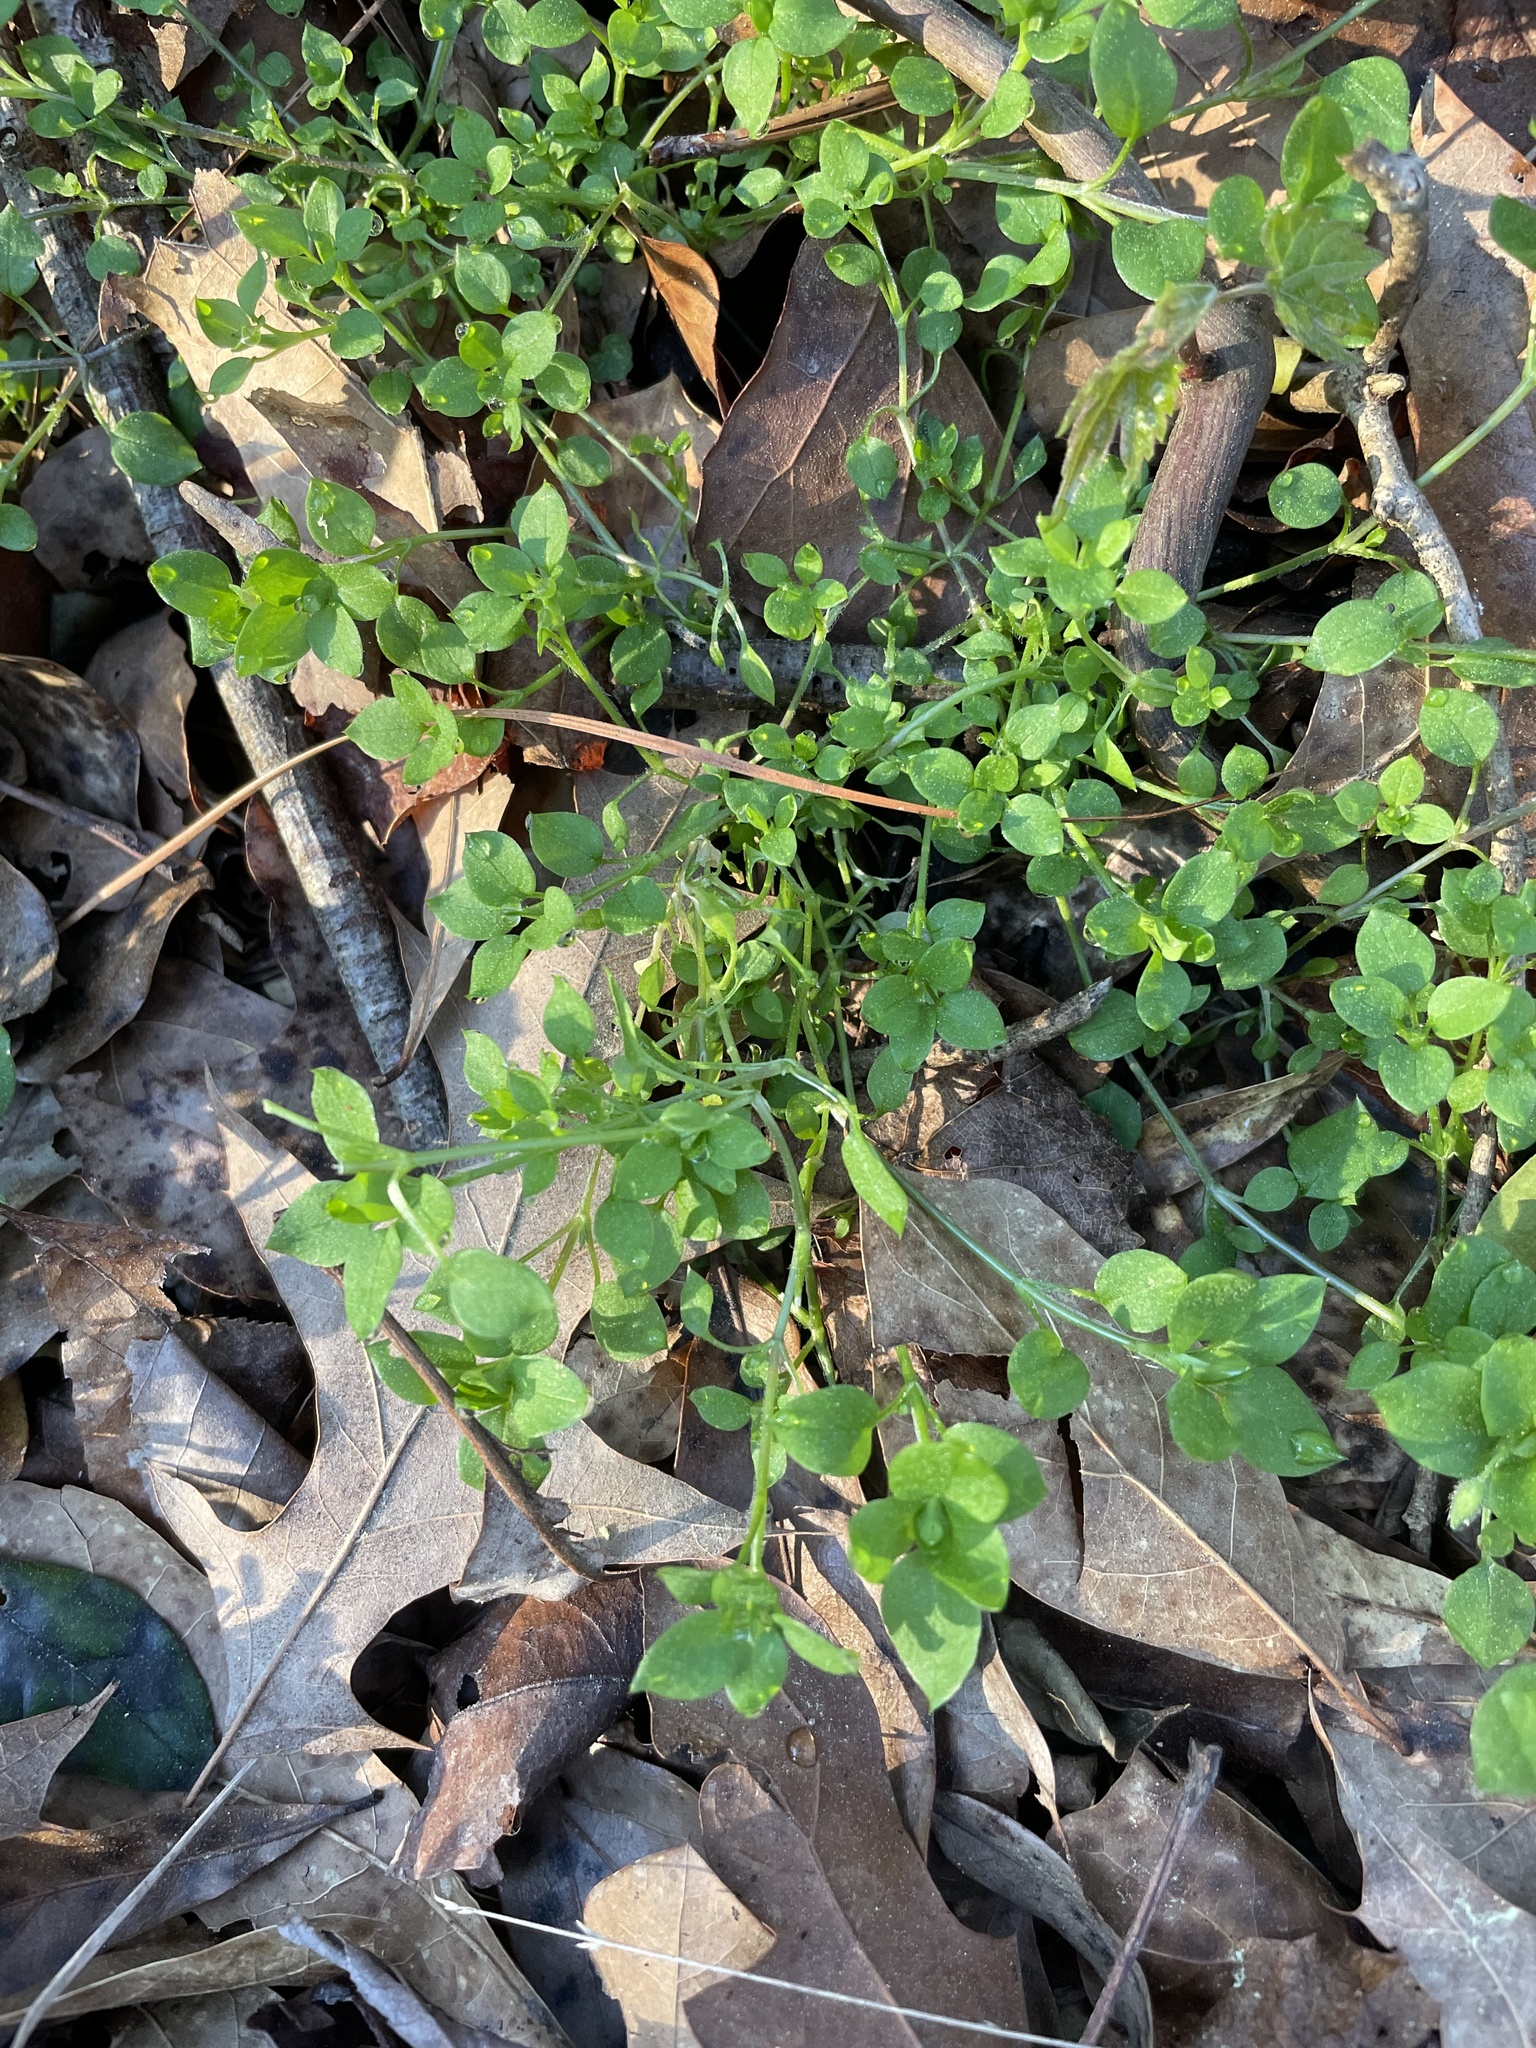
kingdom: Plantae
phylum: Tracheophyta
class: Magnoliopsida
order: Caryophyllales
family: Caryophyllaceae
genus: Stellaria
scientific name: Stellaria media
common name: Common chickweed
